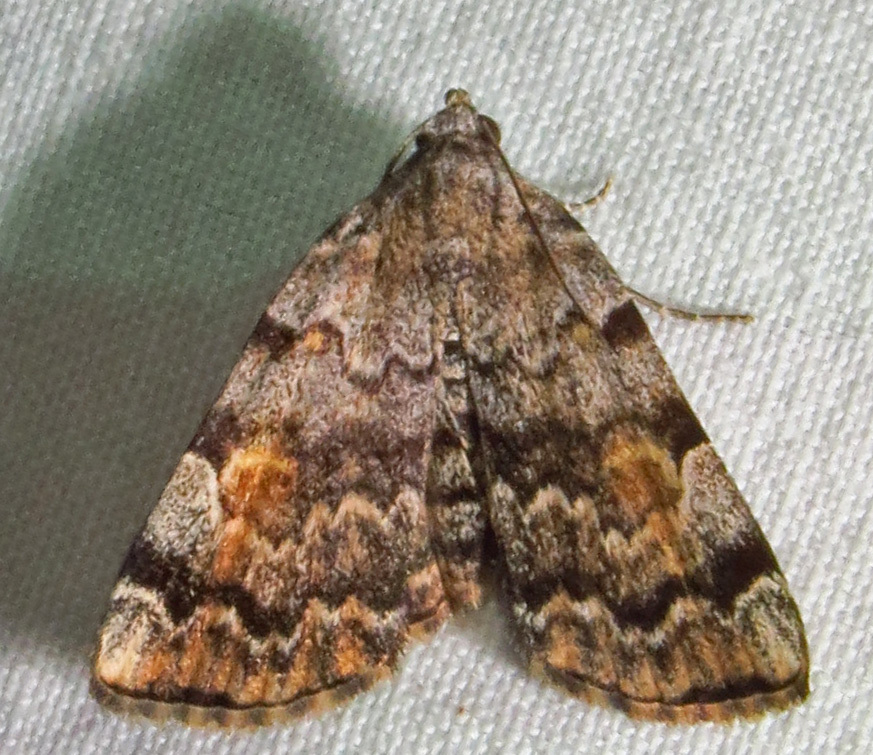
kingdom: Animalia
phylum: Arthropoda
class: Insecta
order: Lepidoptera
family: Erebidae
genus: Idia
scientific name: Idia americalis
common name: American idia moth
